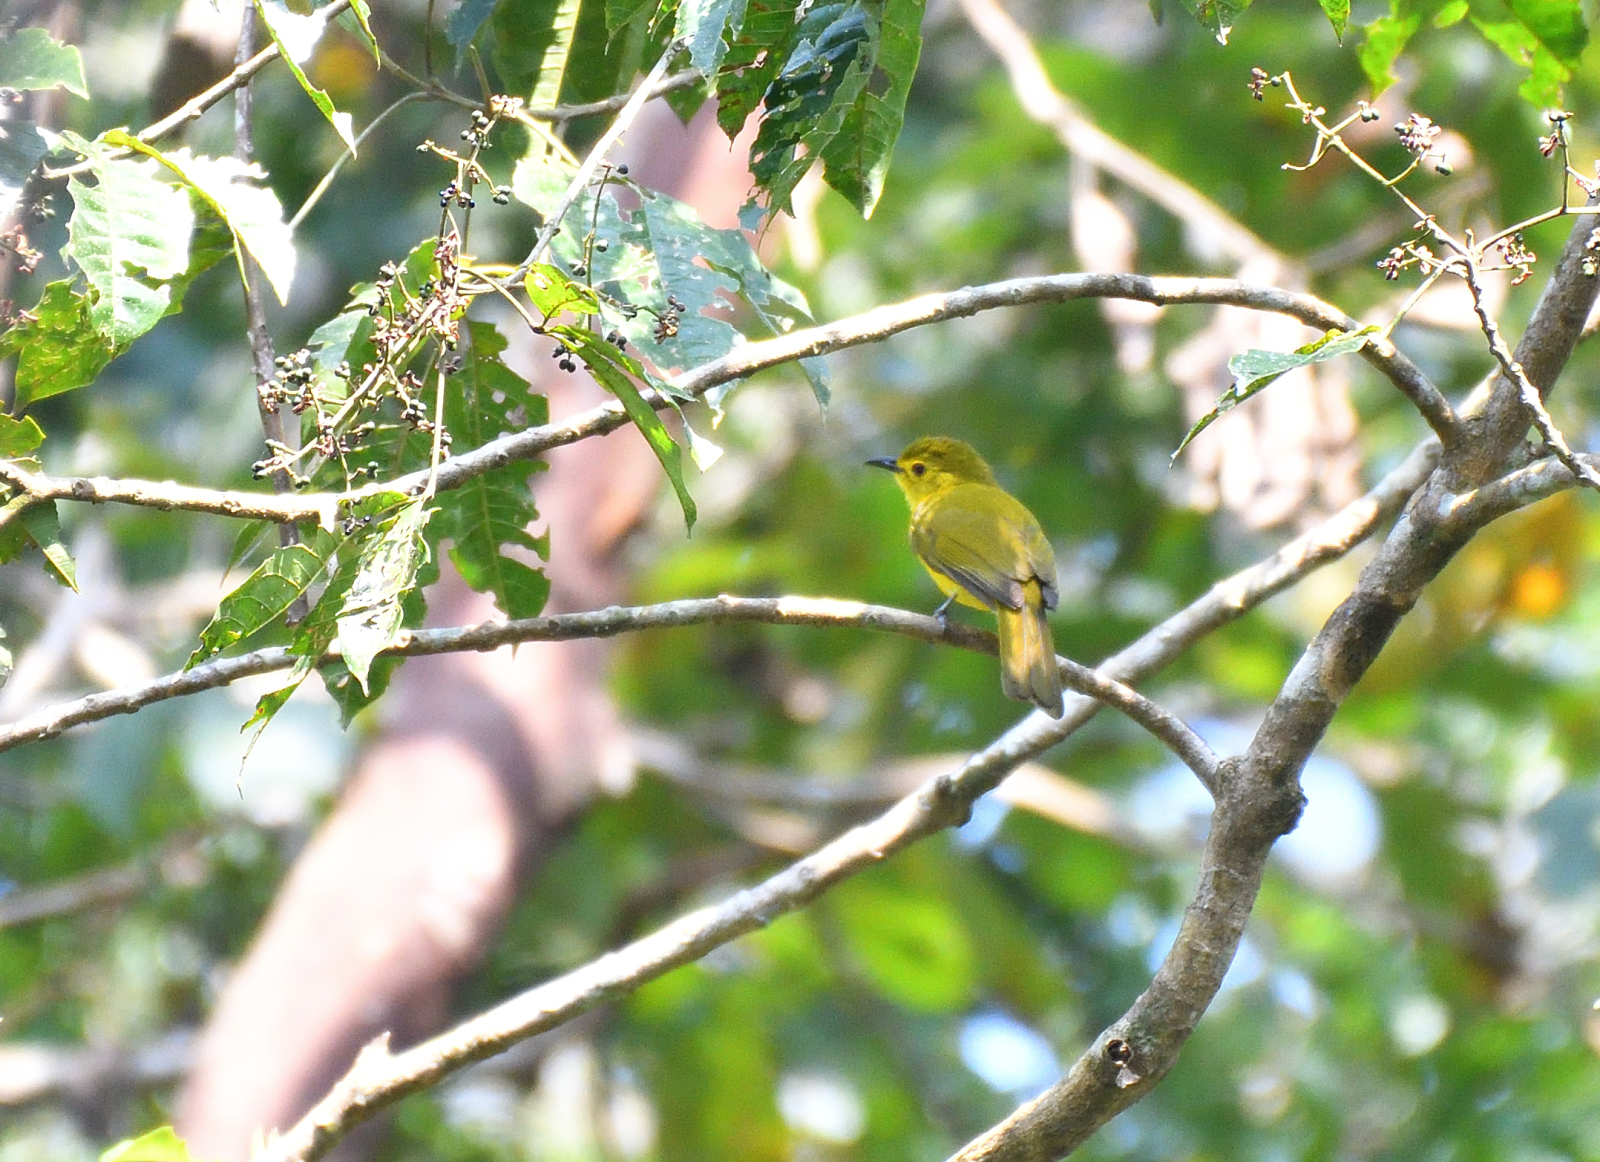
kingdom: Animalia
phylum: Chordata
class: Aves
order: Passeriformes
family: Pycnonotidae
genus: Acritillas
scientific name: Acritillas indica
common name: Yellow-browed bulbul
